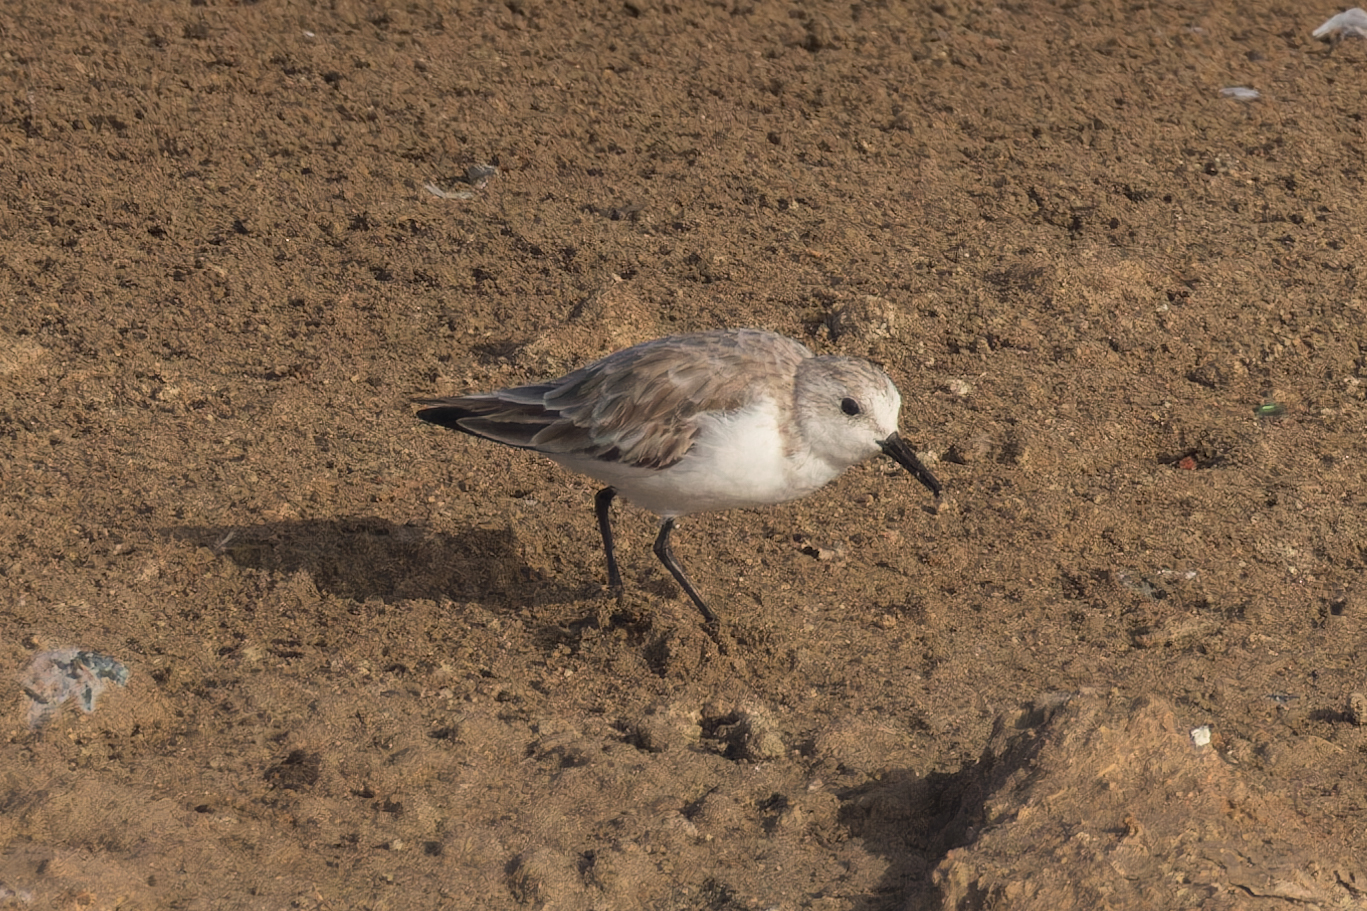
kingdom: Animalia
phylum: Chordata
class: Aves
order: Charadriiformes
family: Scolopacidae
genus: Calidris
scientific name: Calidris minuta
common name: Little stint
